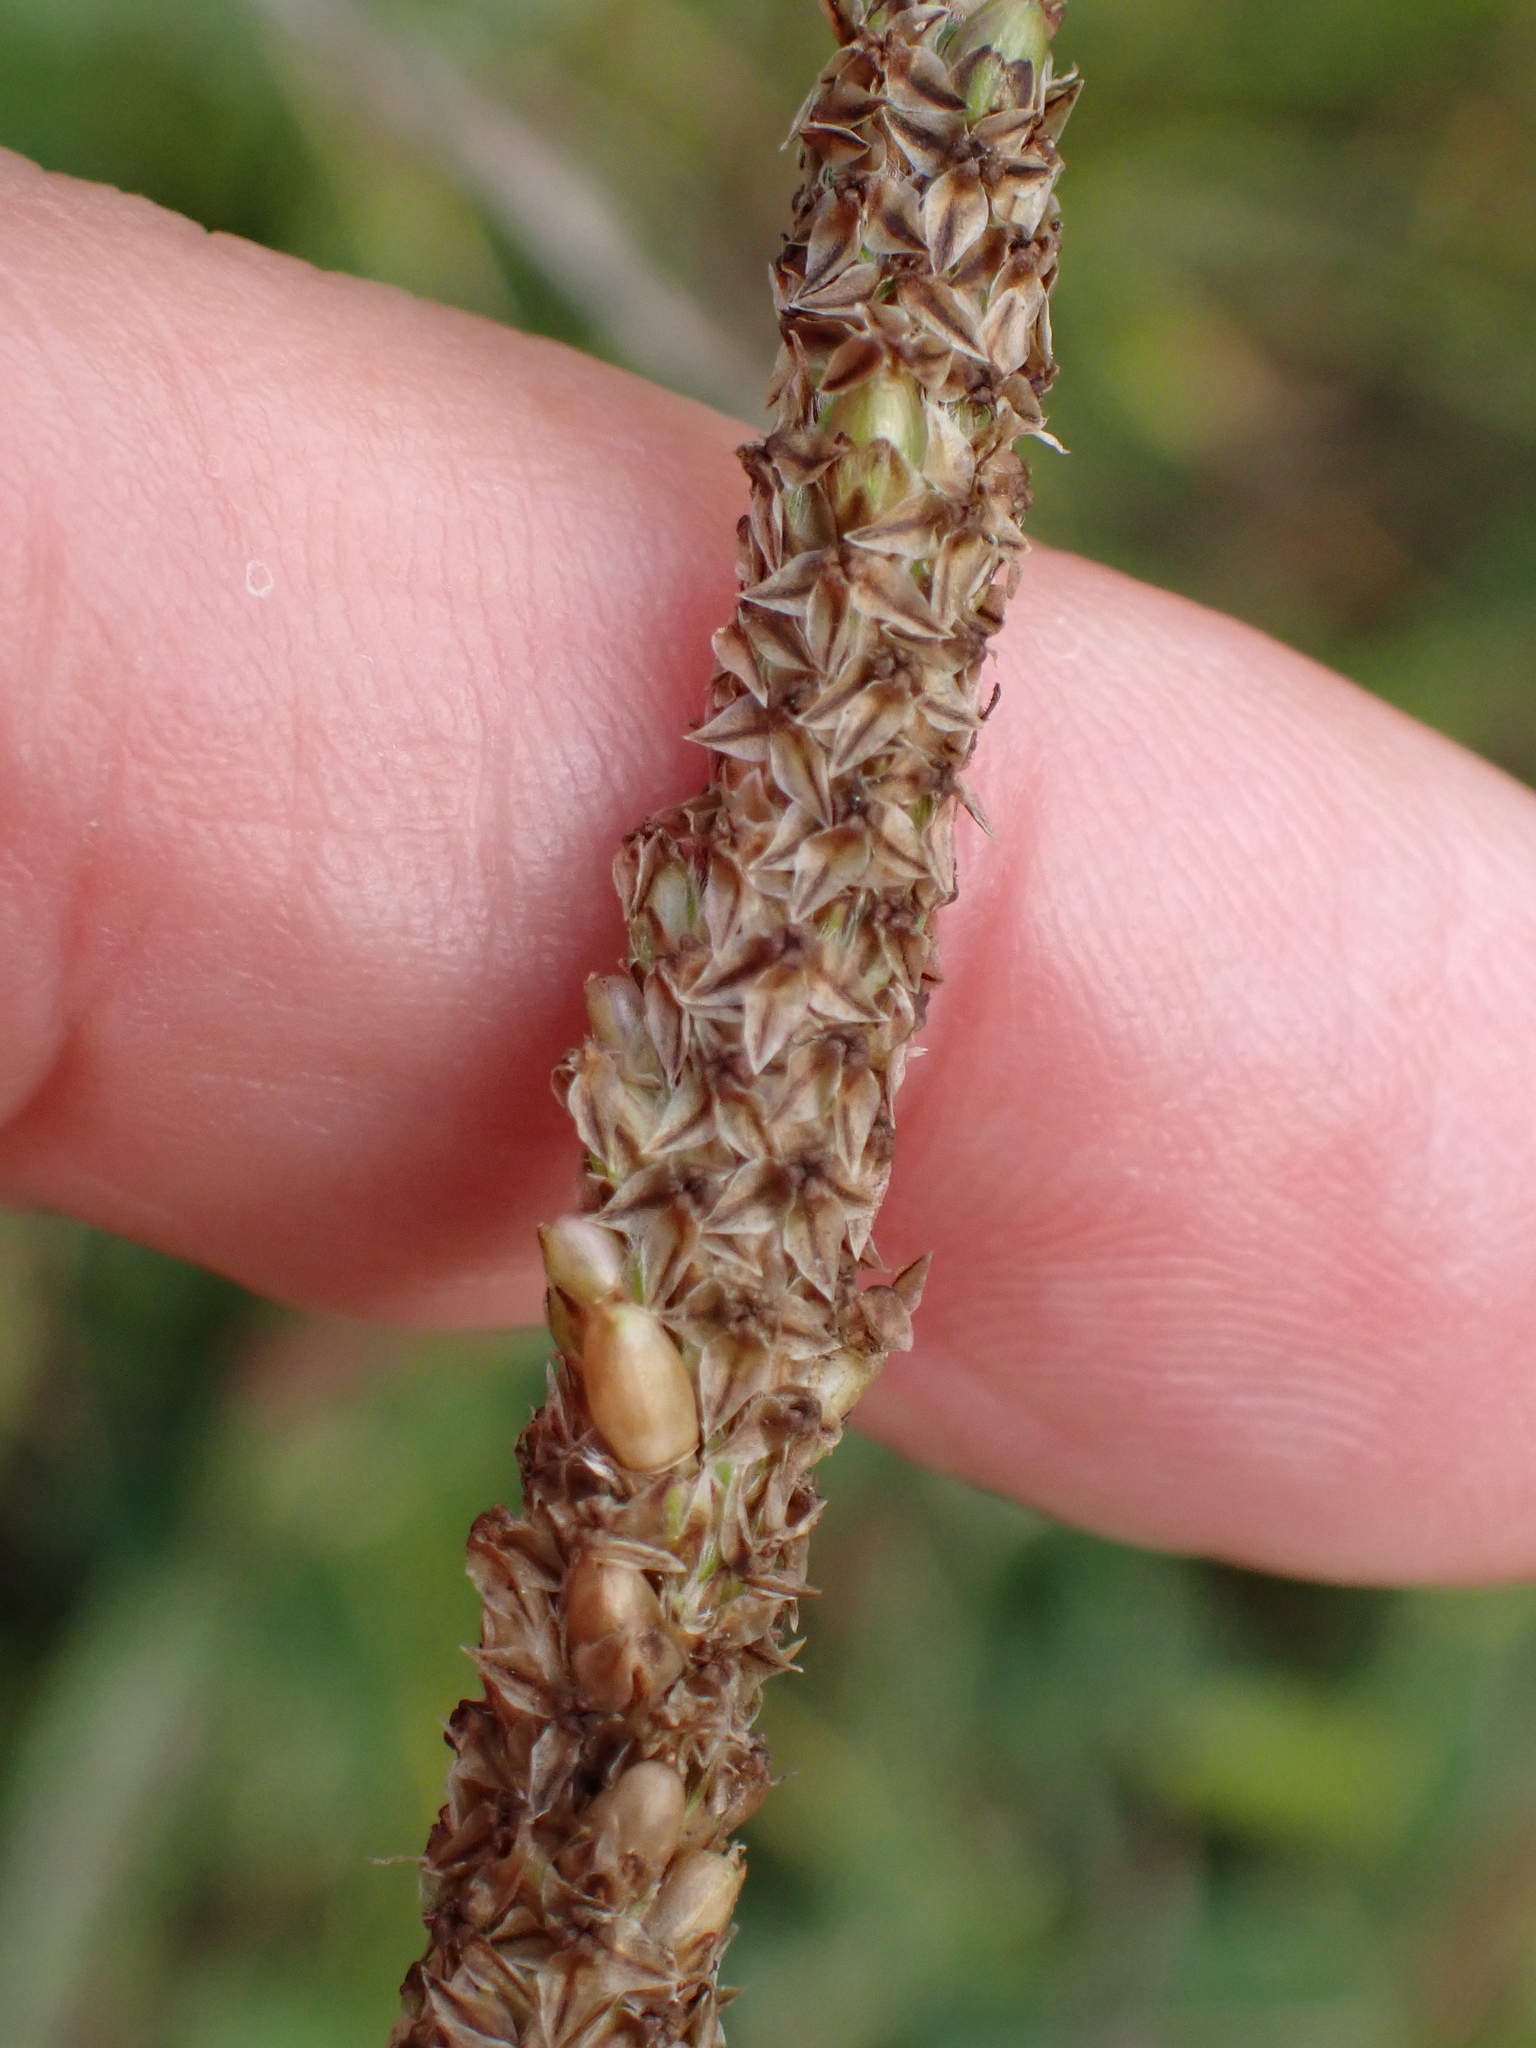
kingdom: Plantae
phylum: Tracheophyta
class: Magnoliopsida
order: Lamiales
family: Plantaginaceae
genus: Plantago
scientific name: Plantago major
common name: Common plantain
